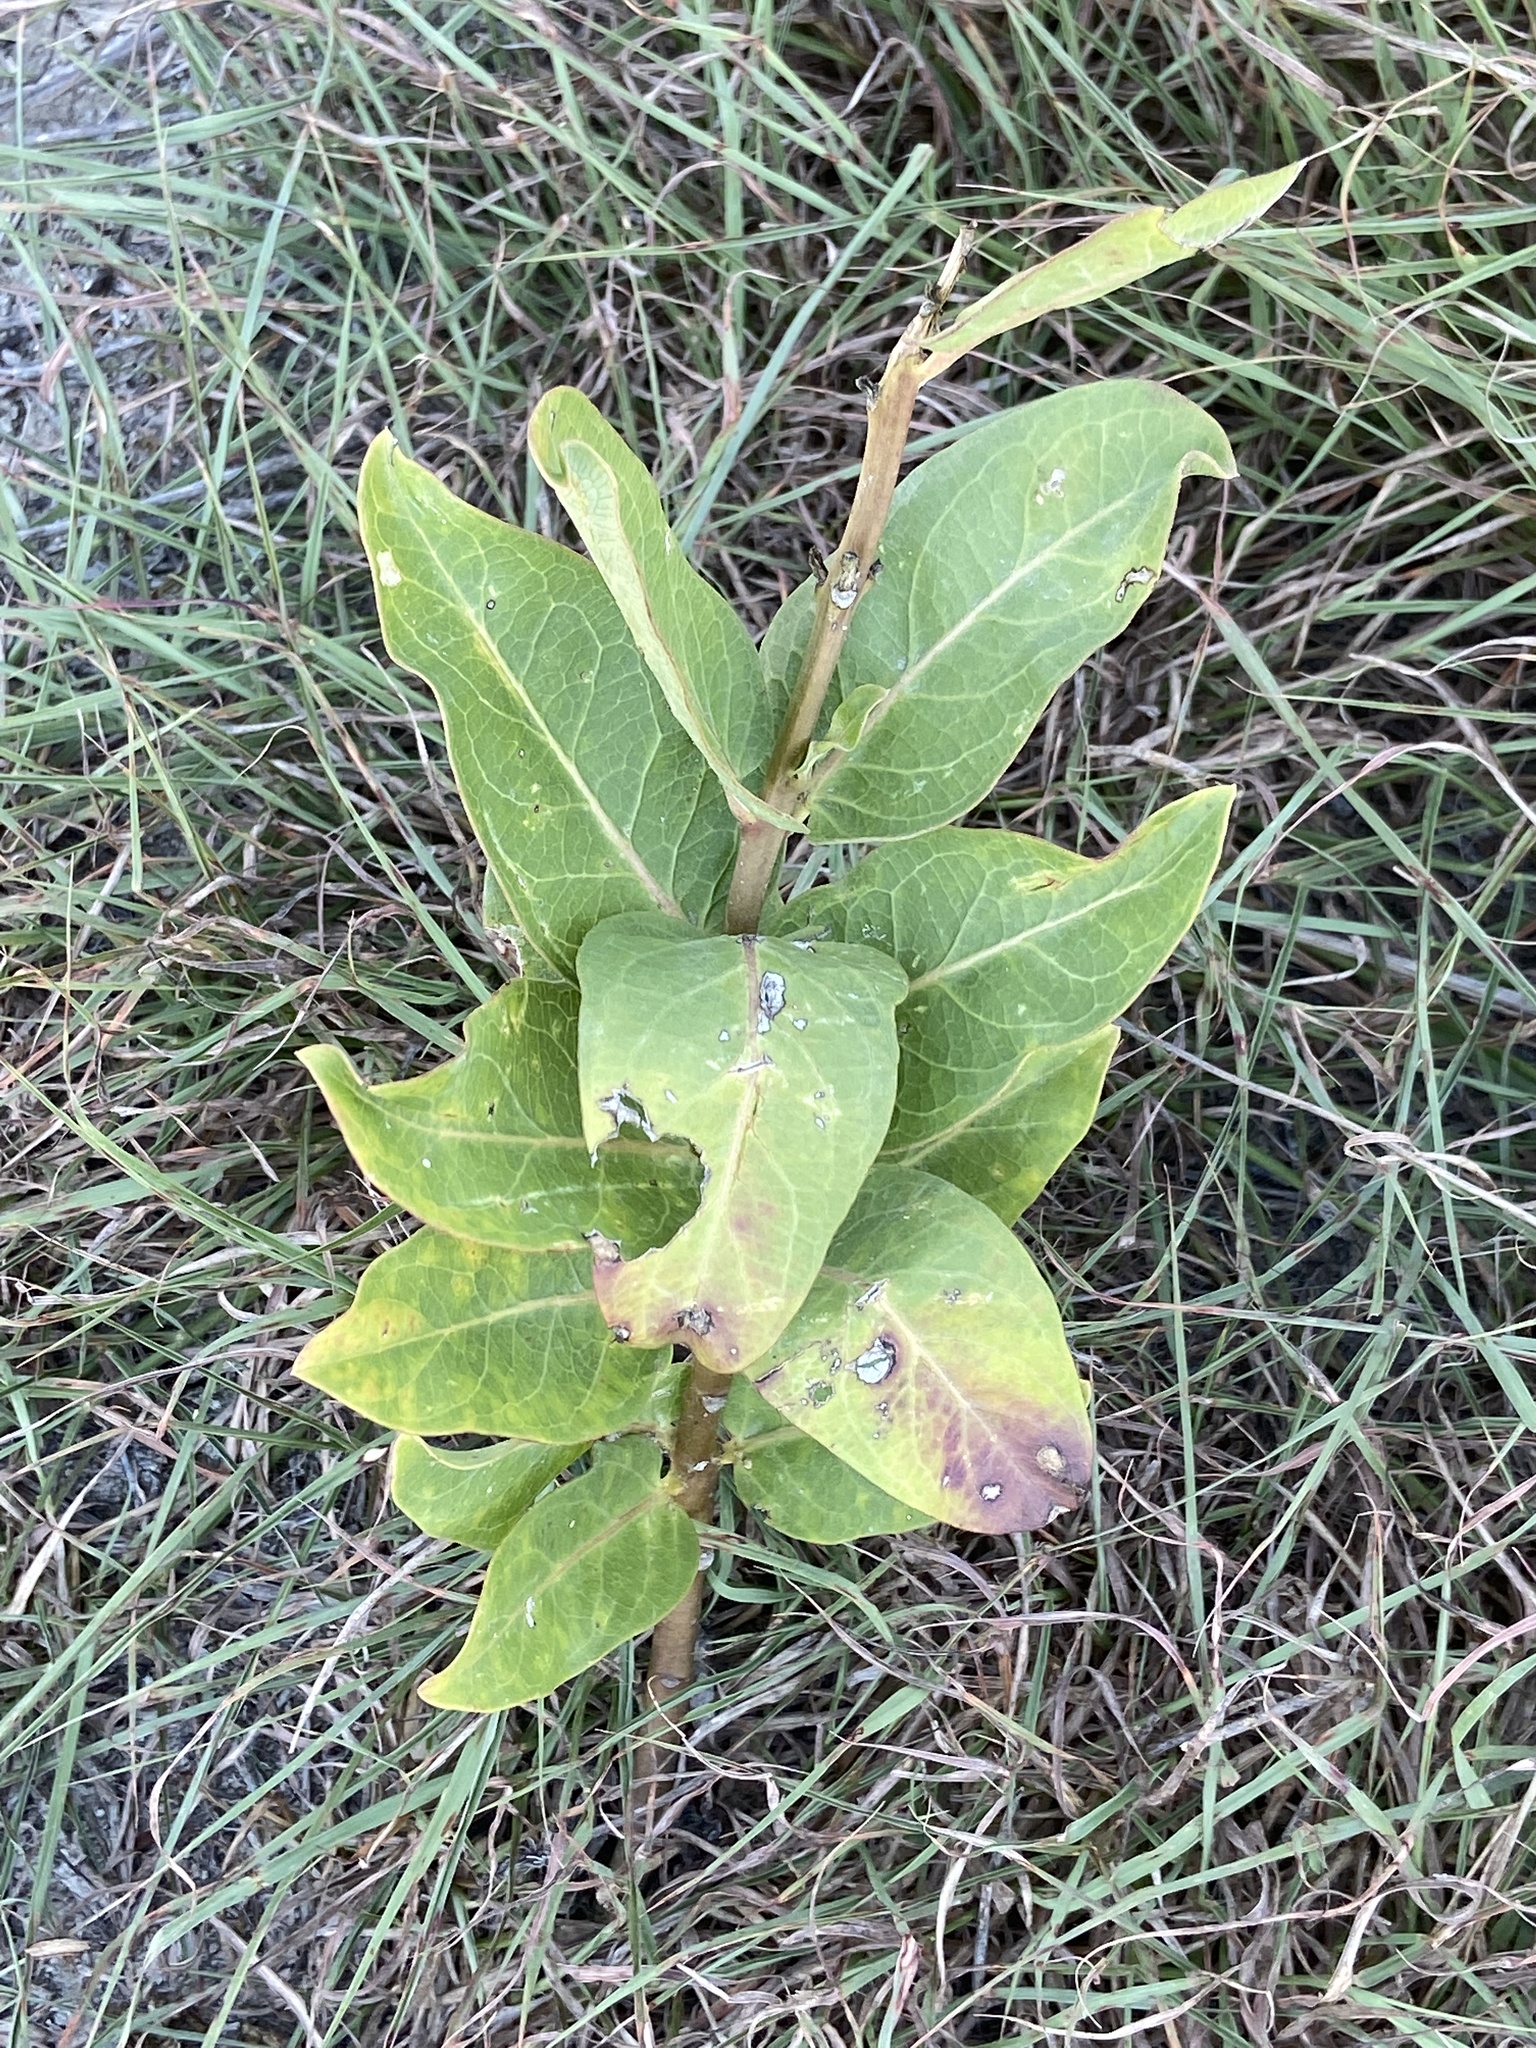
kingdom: Plantae
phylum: Tracheophyta
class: Magnoliopsida
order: Gentianales
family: Apocynaceae
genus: Asclepias
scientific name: Asclepias viridis
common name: Antelope-horns
